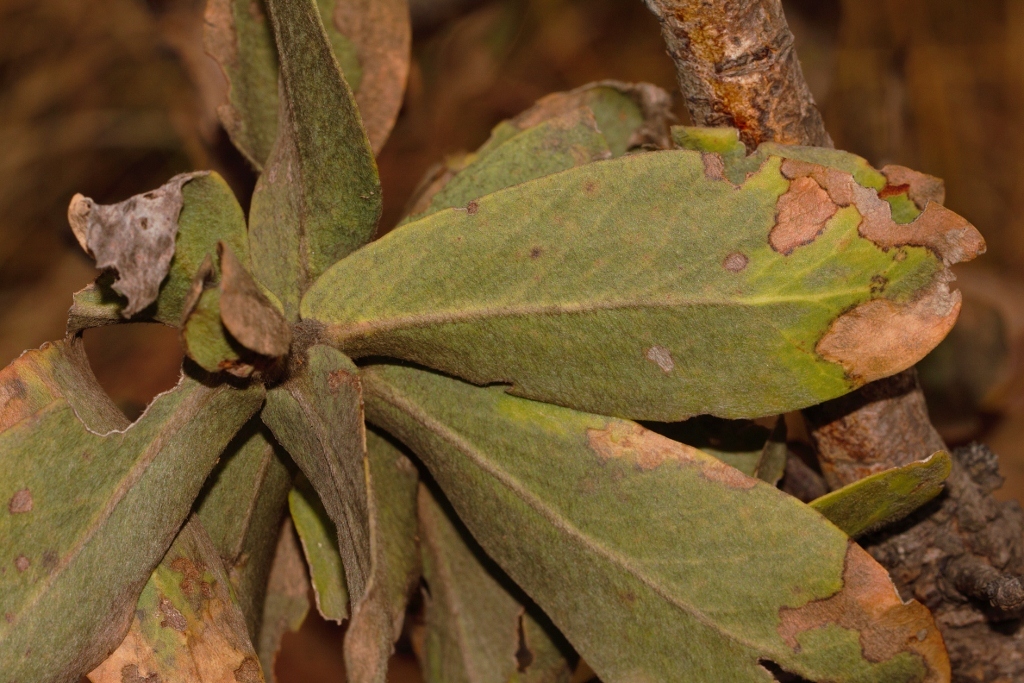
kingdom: Plantae
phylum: Tracheophyta
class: Magnoliopsida
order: Proteales
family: Proteaceae
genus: Protea
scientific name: Protea welwitschii
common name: Cluster-head protea
